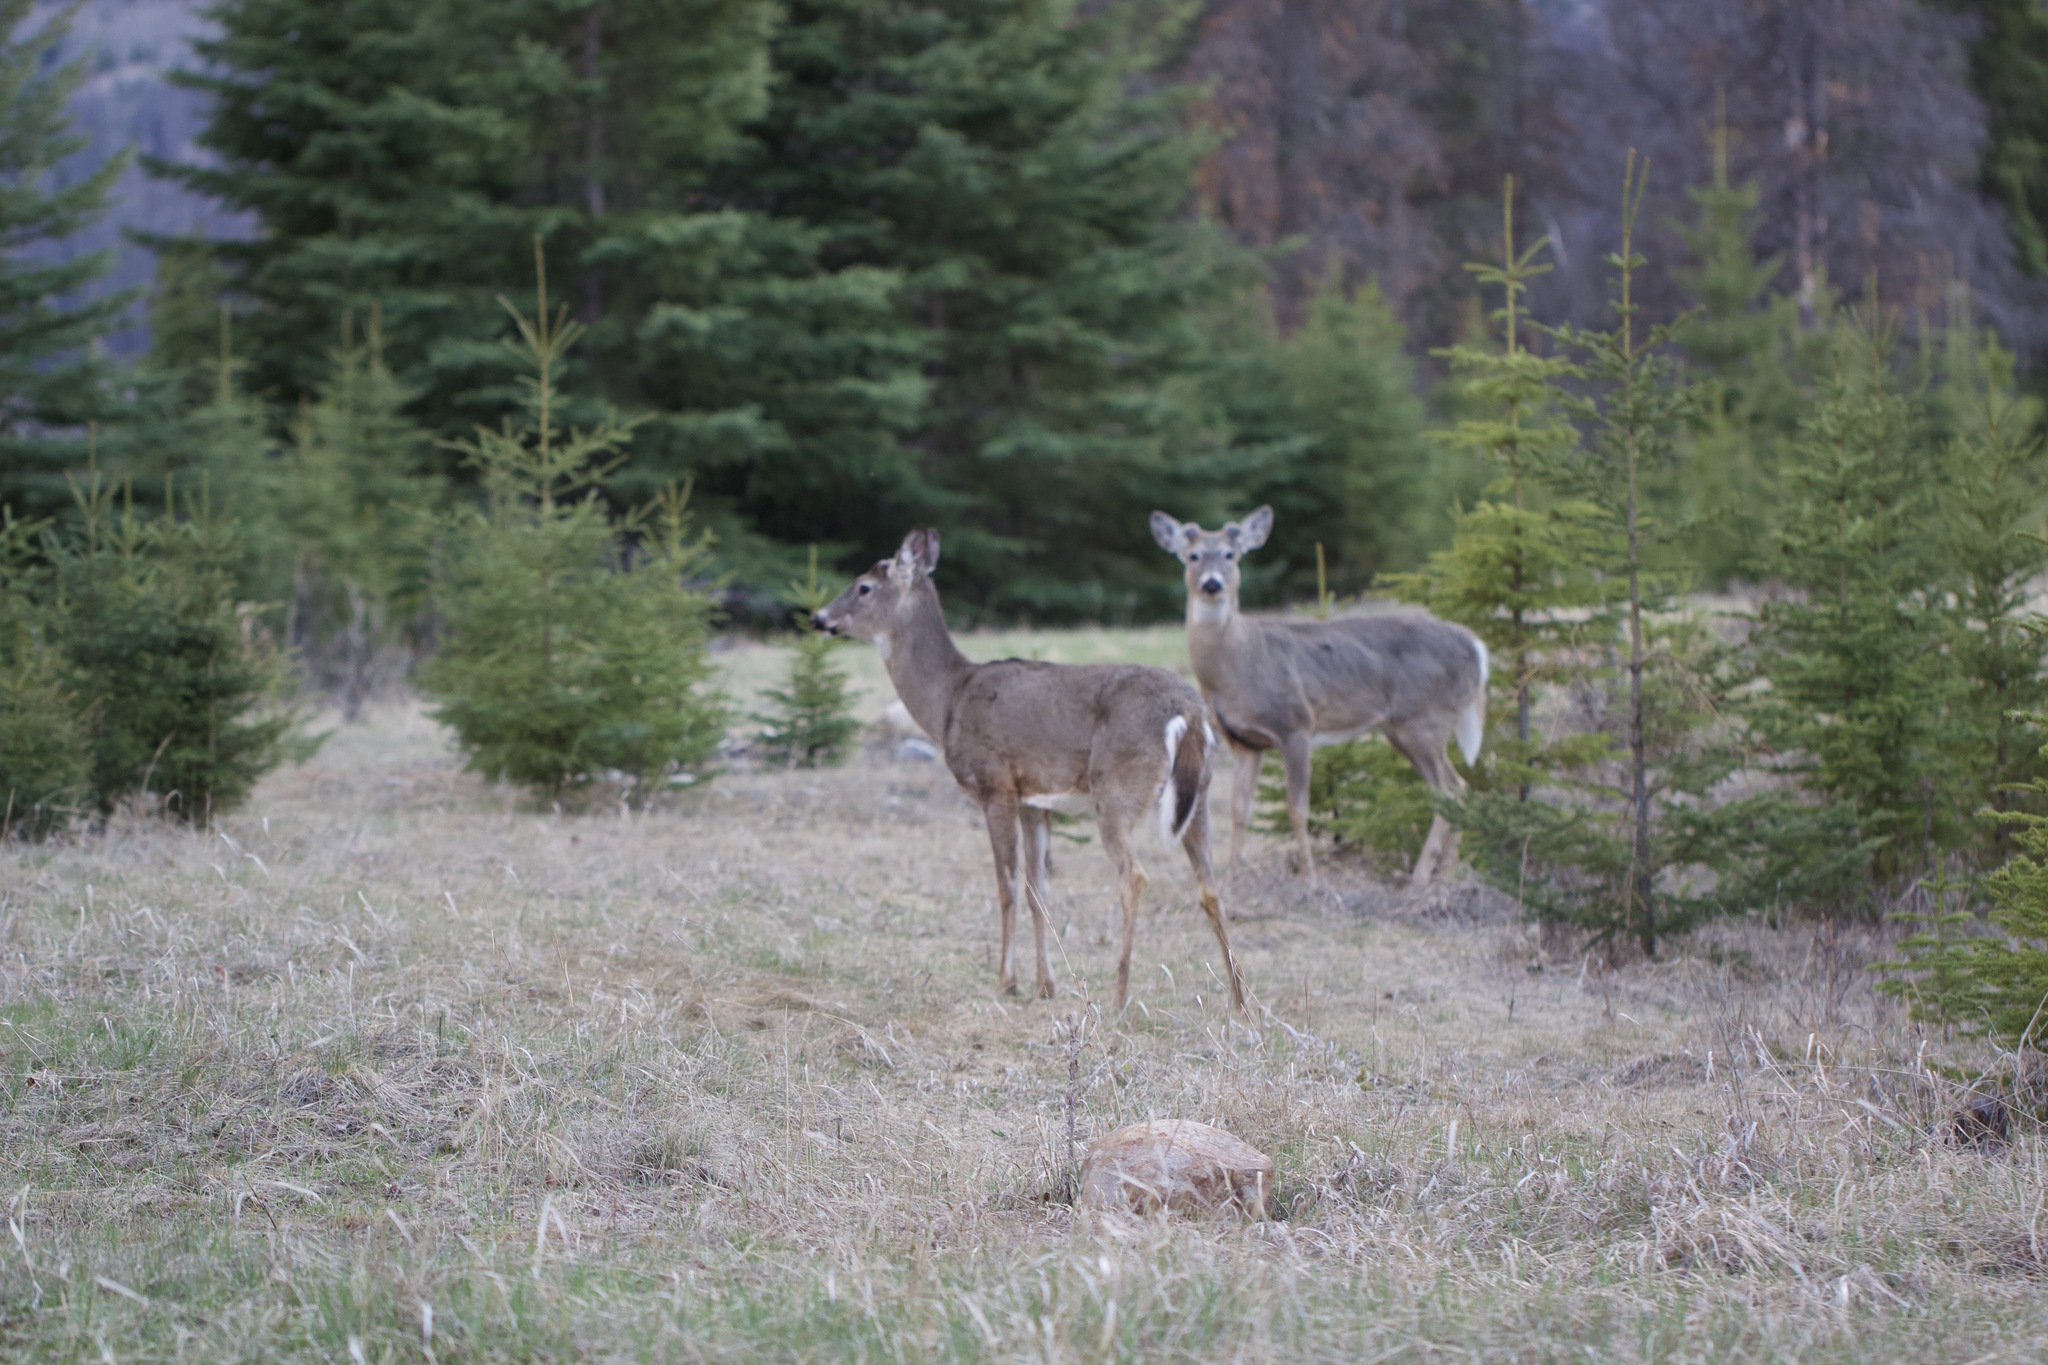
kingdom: Animalia
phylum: Chordata
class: Mammalia
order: Artiodactyla
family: Cervidae
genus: Odocoileus
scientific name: Odocoileus virginianus
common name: White-tailed deer
